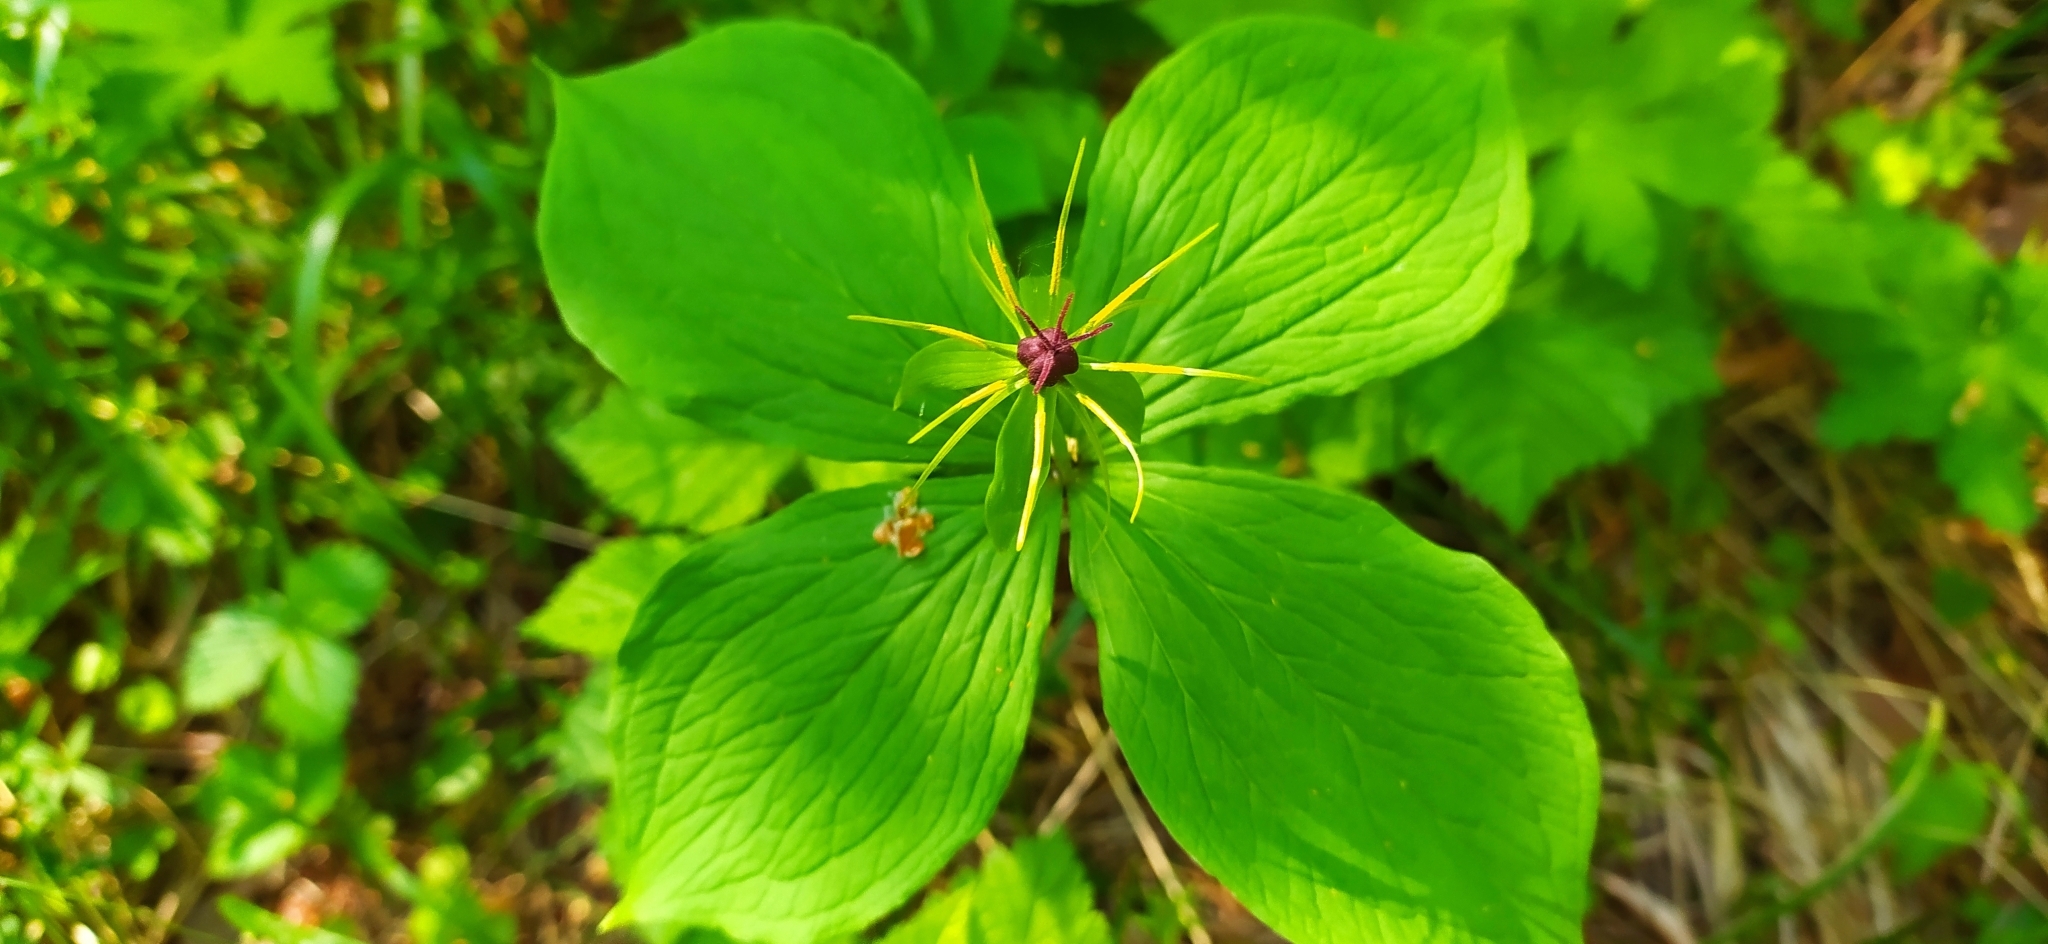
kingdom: Plantae
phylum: Tracheophyta
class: Liliopsida
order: Liliales
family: Melanthiaceae
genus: Paris
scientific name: Paris quadrifolia
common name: Herb-paris
